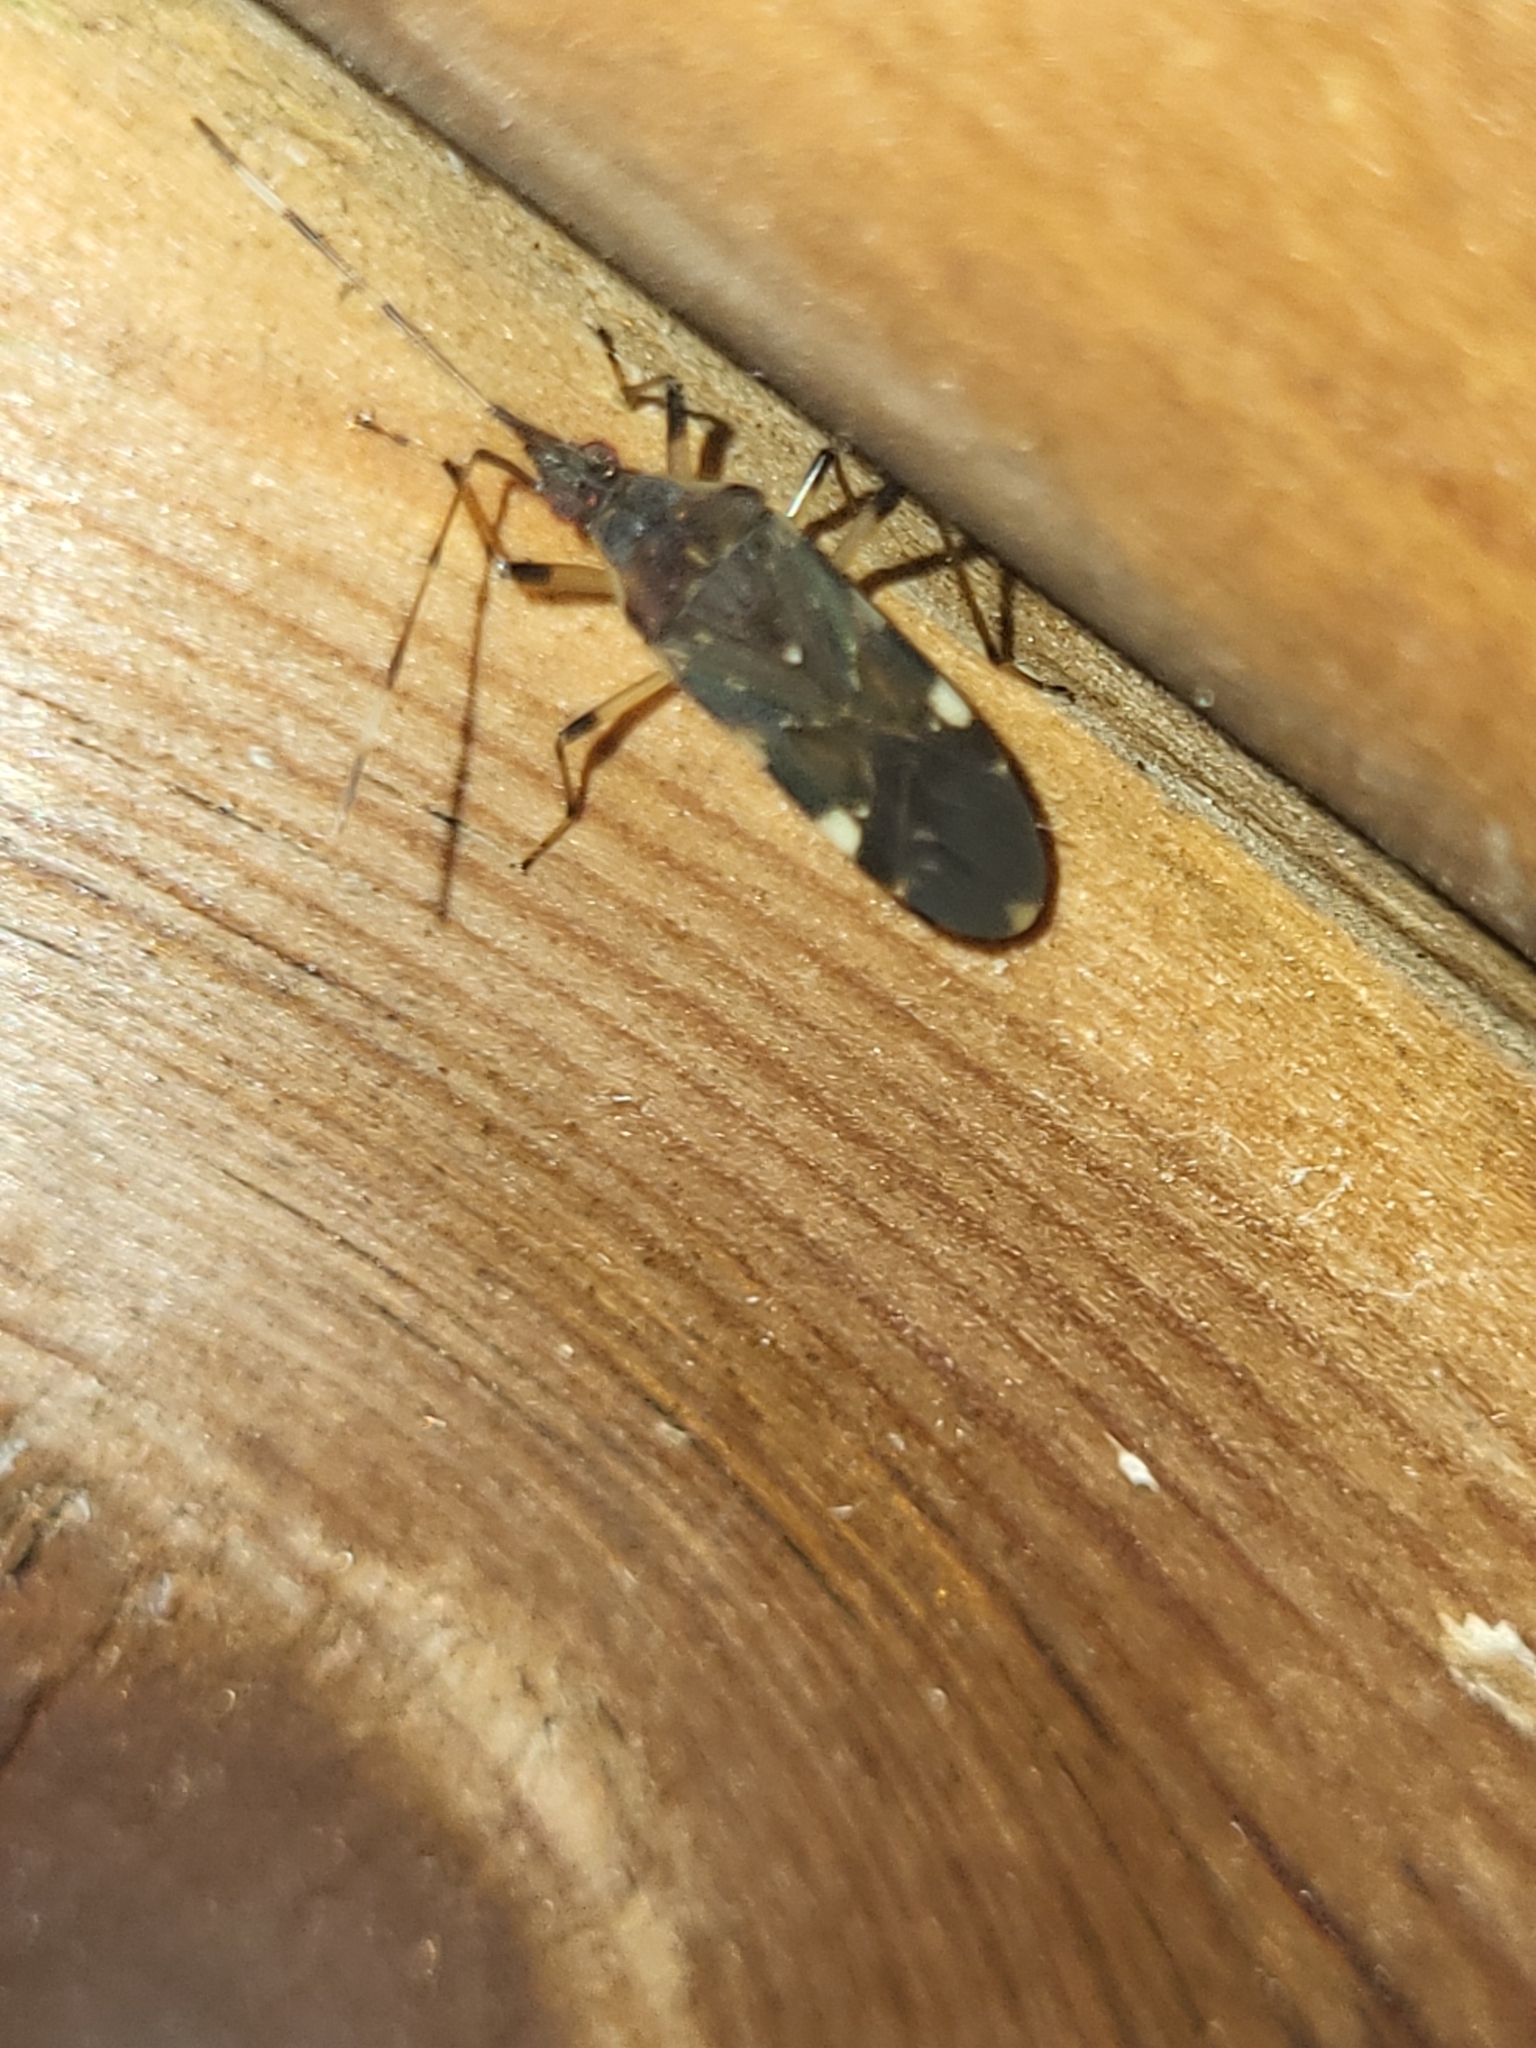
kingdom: Animalia
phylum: Arthropoda
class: Insecta
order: Hemiptera
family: Rhyparochromidae
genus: Dieuches
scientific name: Dieuches placidus
